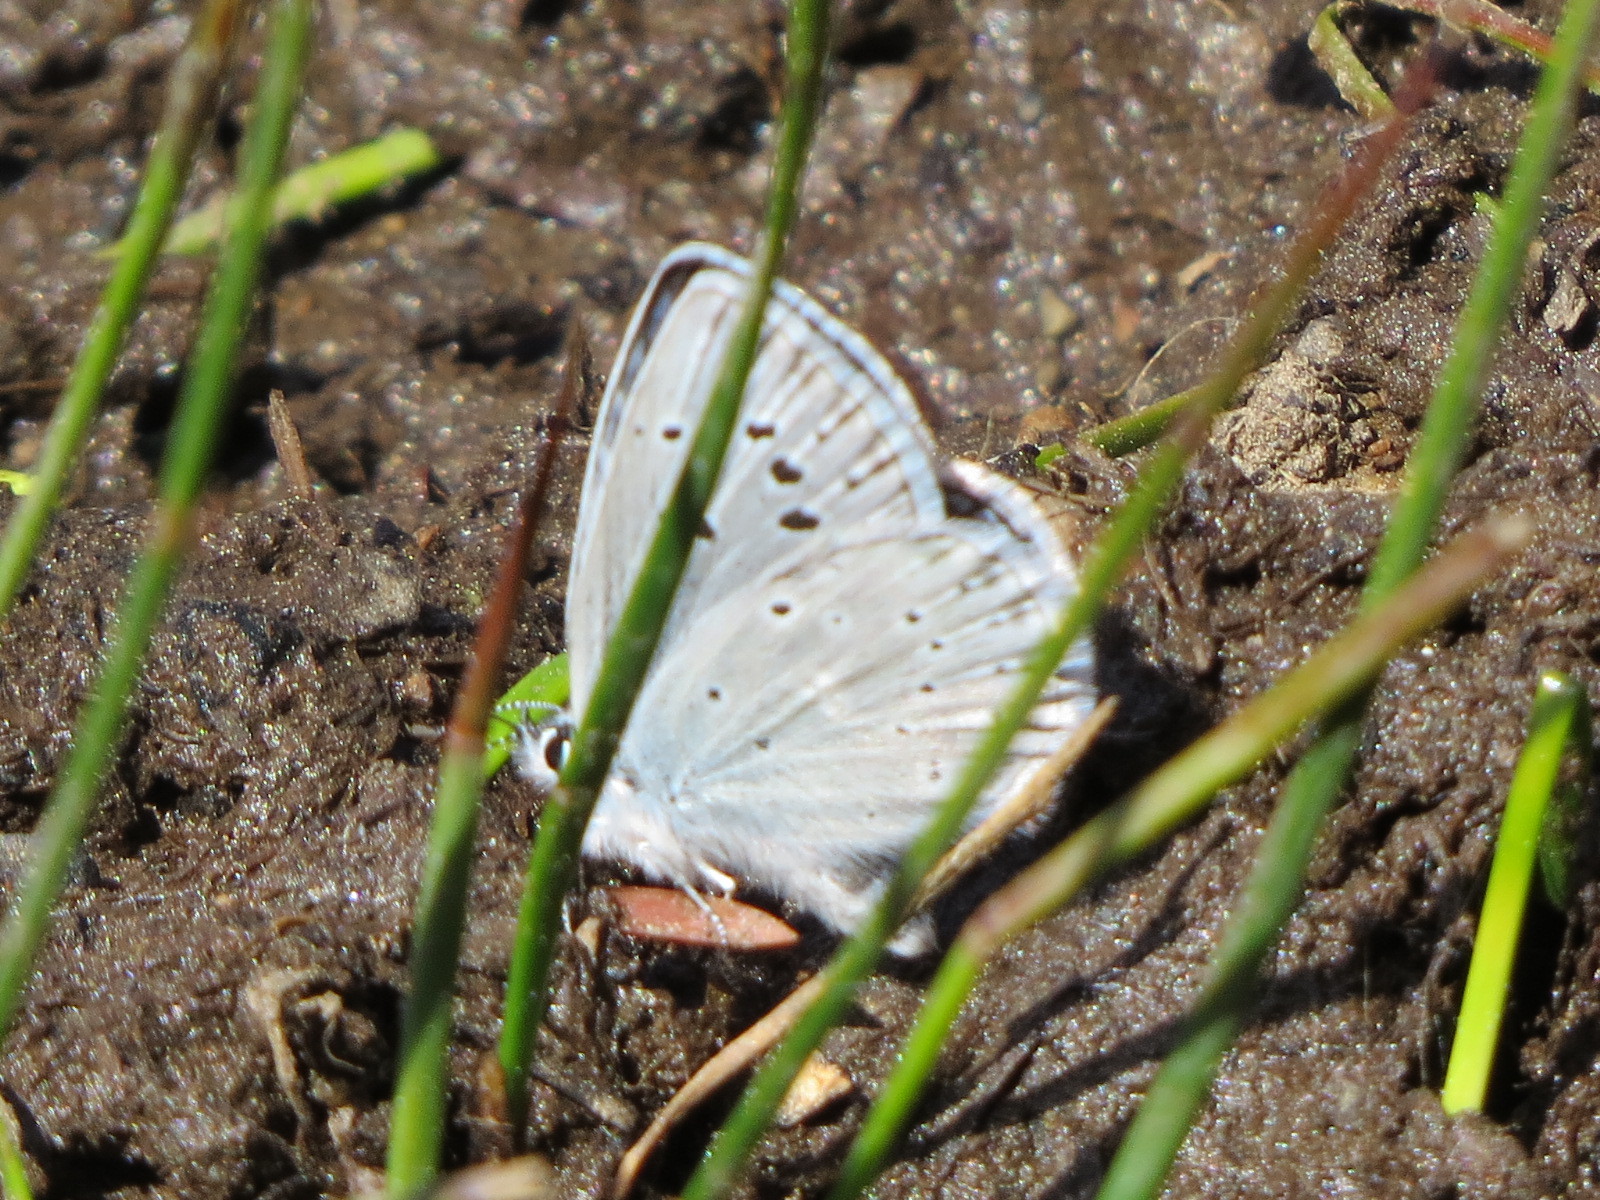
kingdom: Animalia
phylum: Arthropoda
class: Insecta
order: Lepidoptera
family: Lycaenidae
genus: Icaricia
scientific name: Icaricia icarioides
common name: Boisduval's blue
